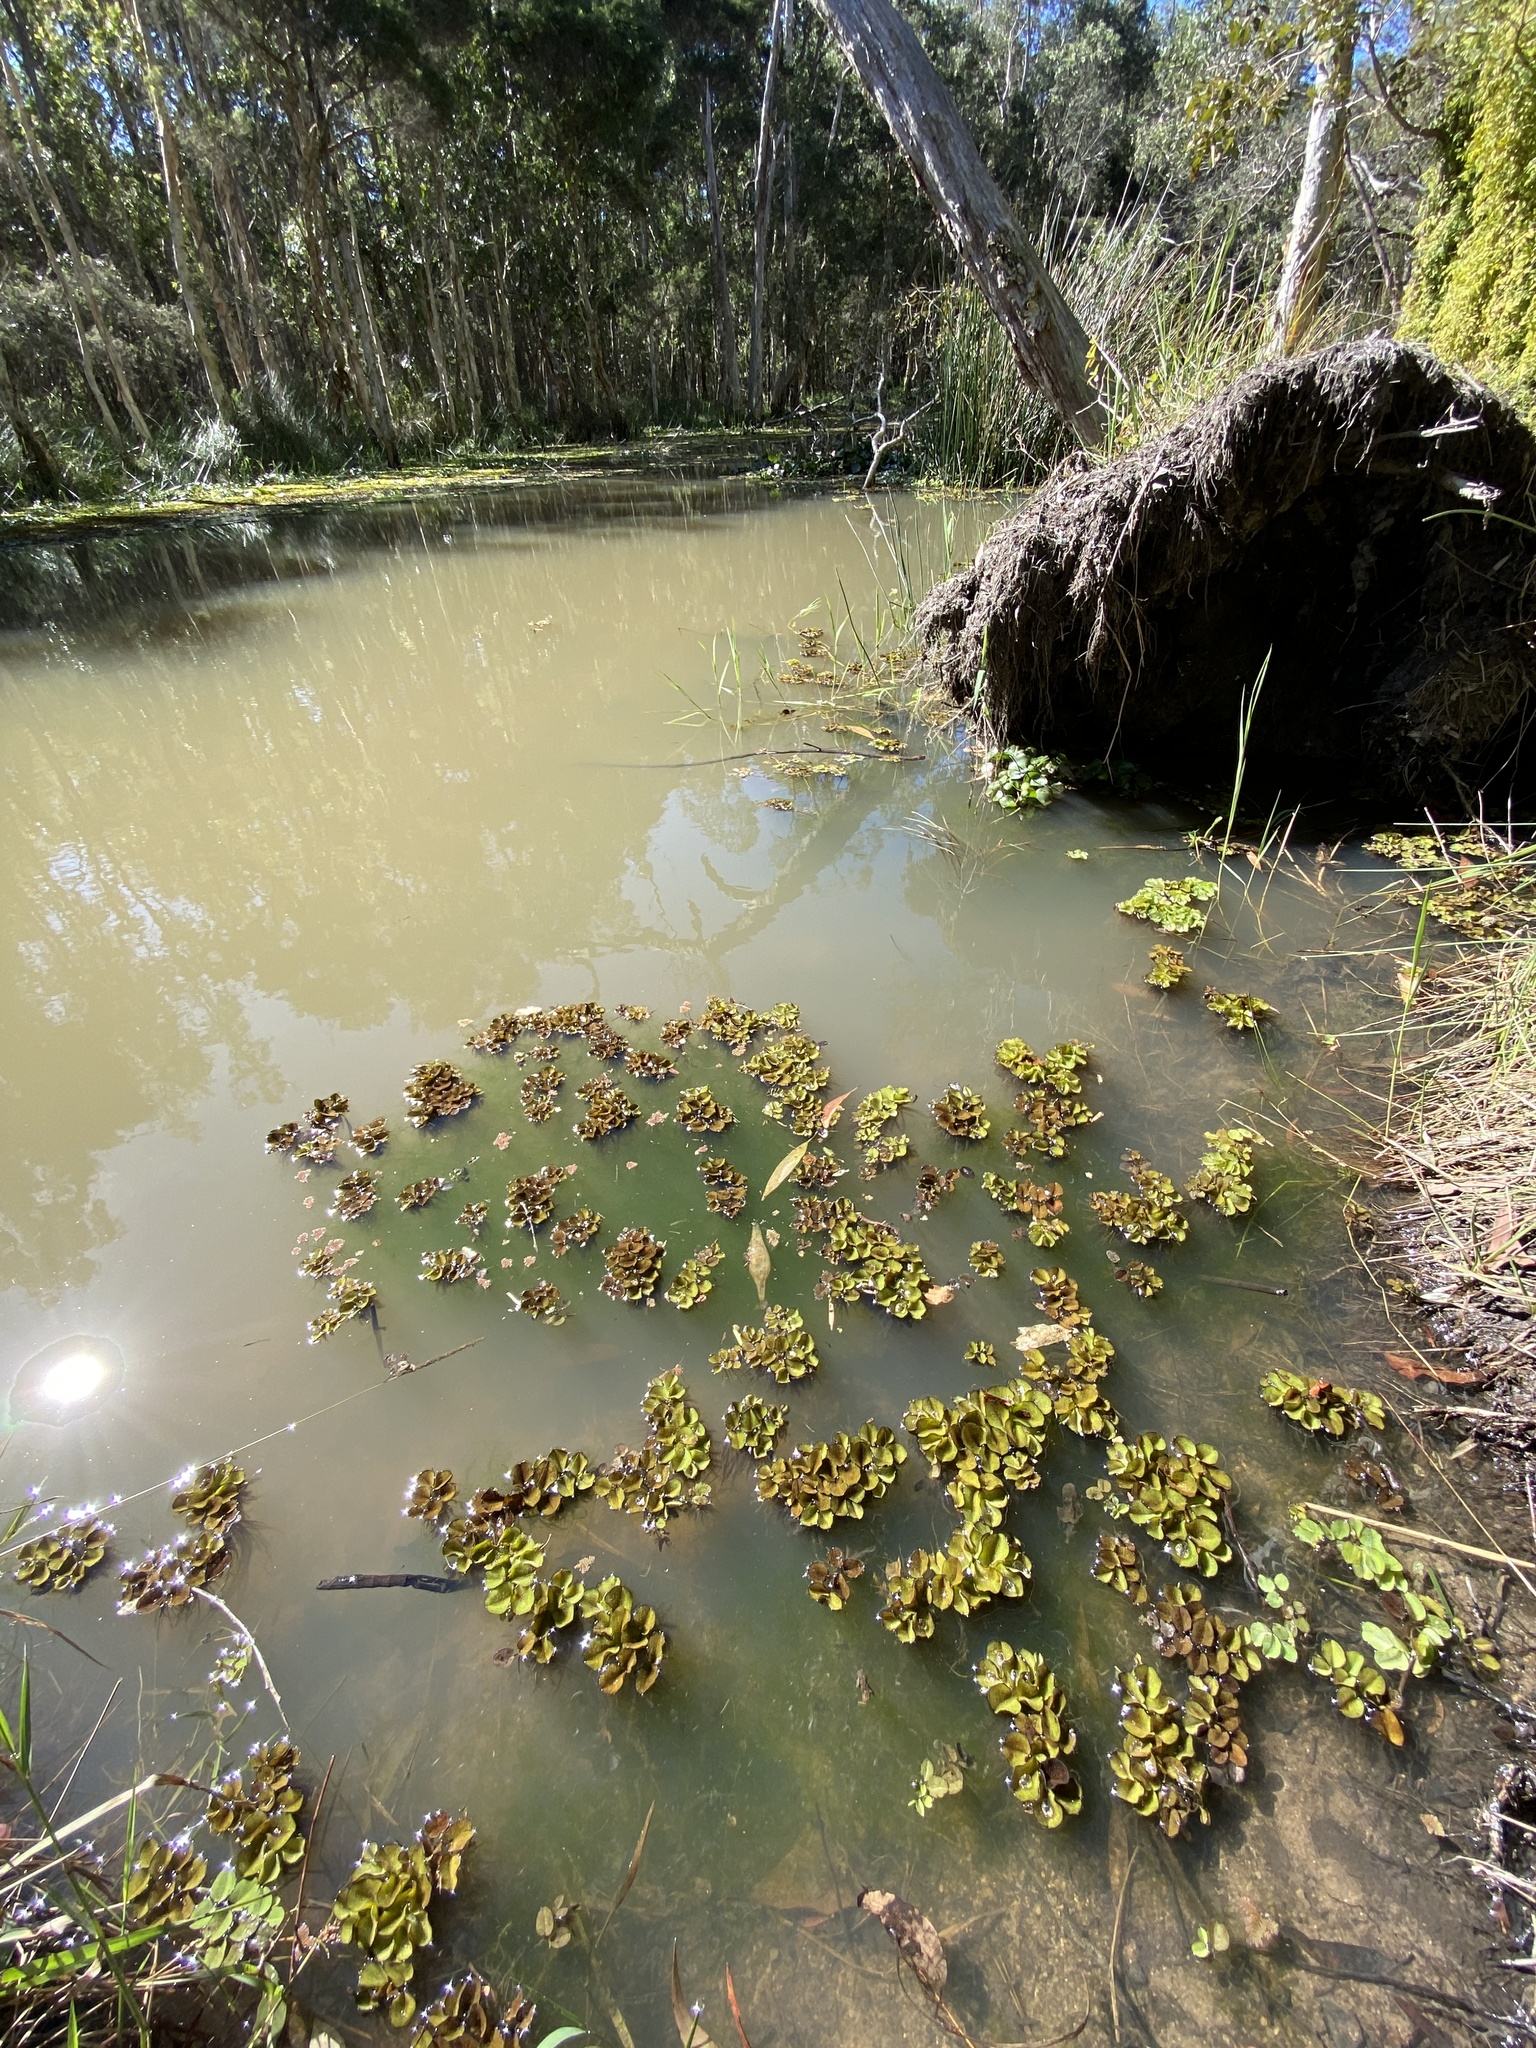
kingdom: Plantae
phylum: Tracheophyta
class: Polypodiopsida
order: Salviniales
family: Salviniaceae
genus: Salvinia
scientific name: Salvinia molesta
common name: Kariba weed
